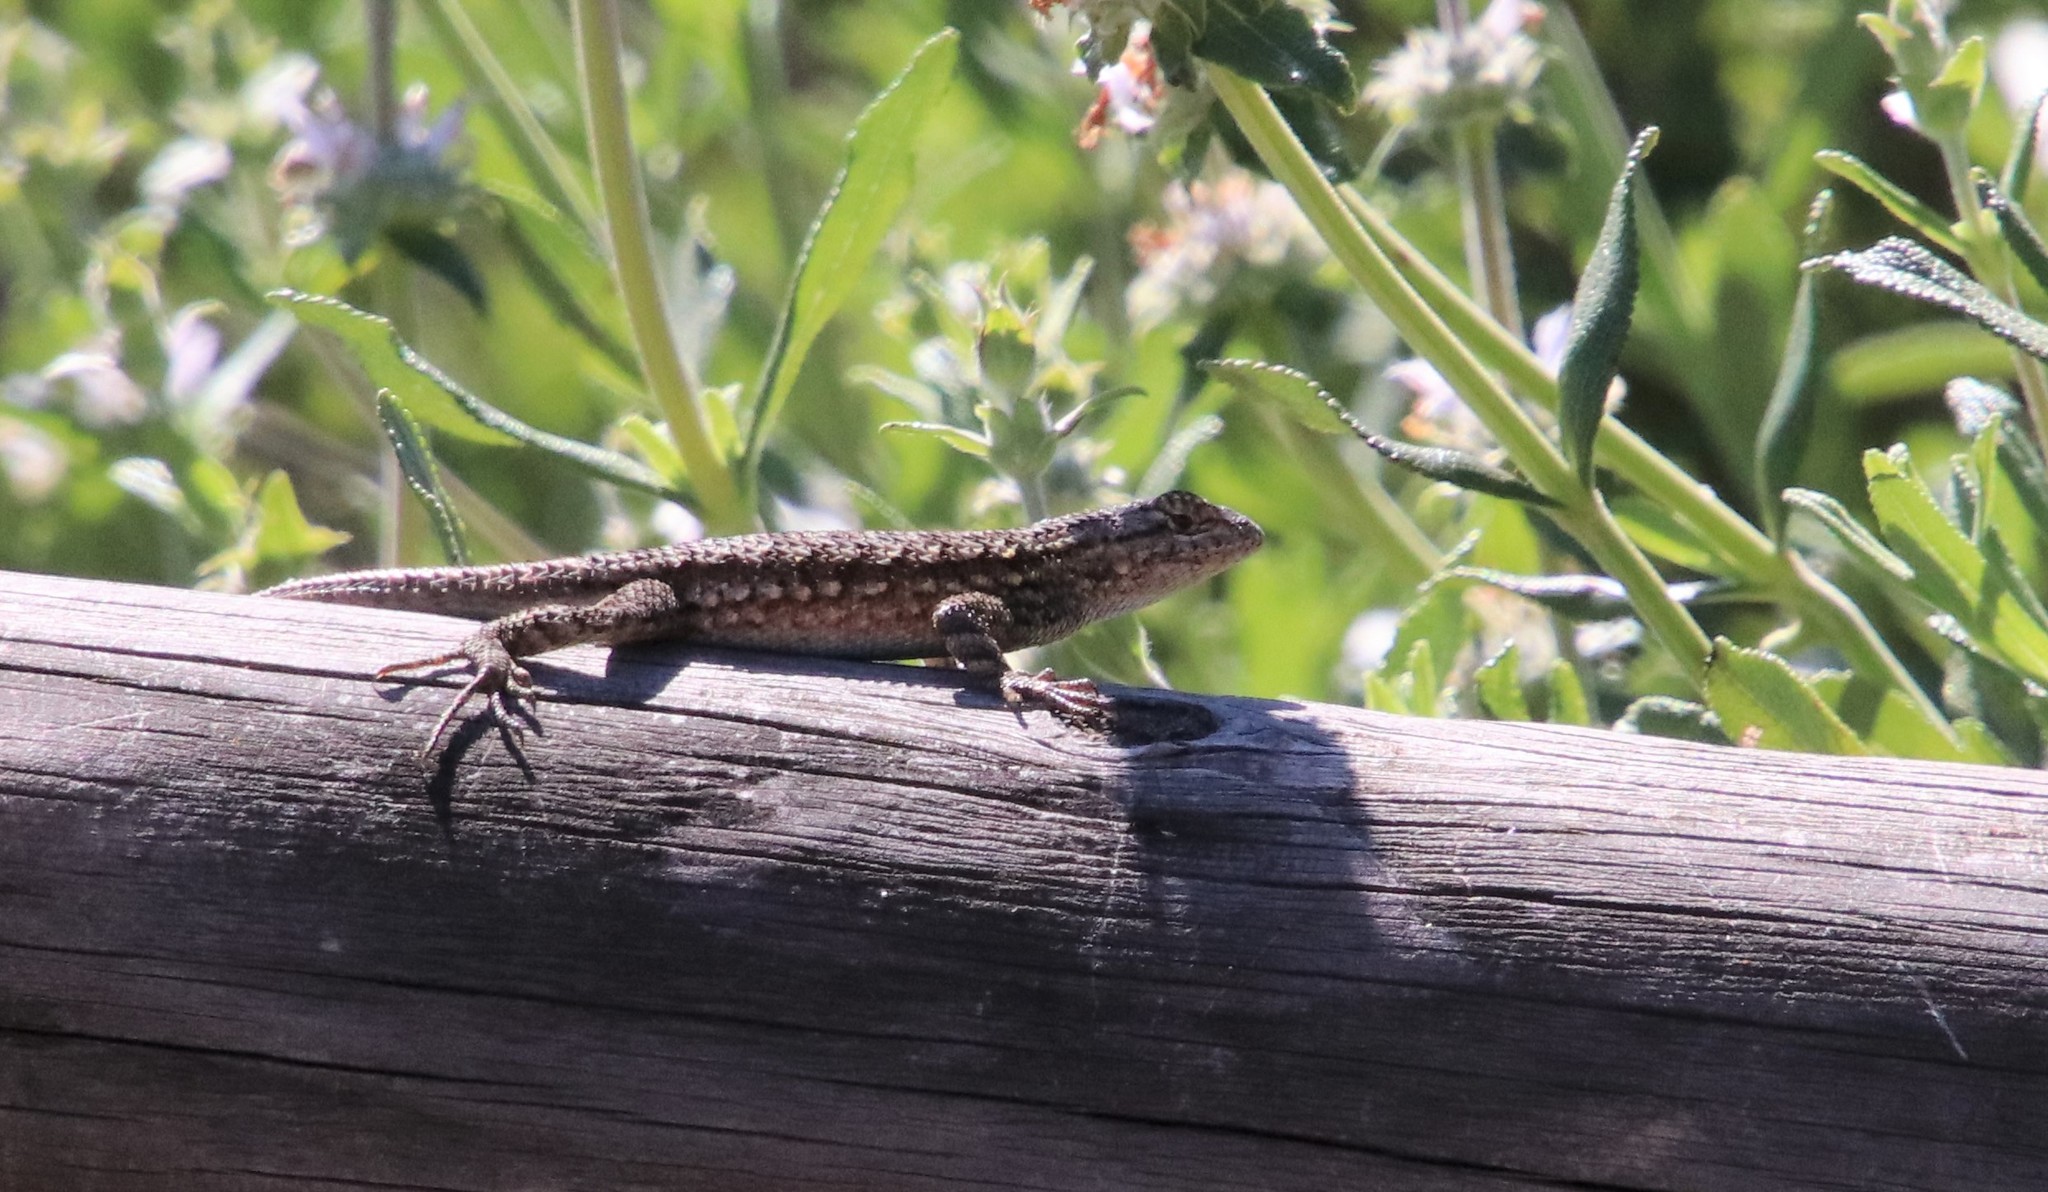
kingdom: Animalia
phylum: Chordata
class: Squamata
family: Phrynosomatidae
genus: Sceloporus
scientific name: Sceloporus occidentalis
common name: Western fence lizard
